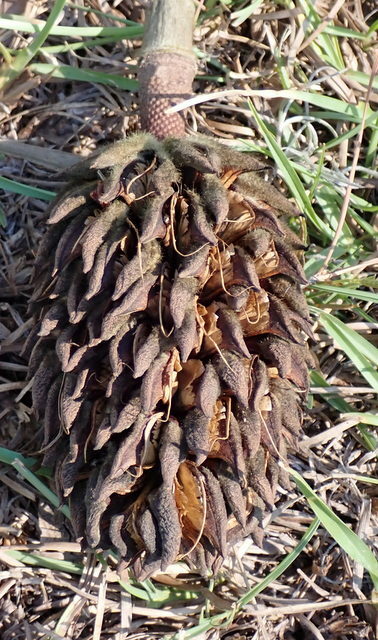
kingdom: Plantae
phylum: Tracheophyta
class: Magnoliopsida
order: Magnoliales
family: Magnoliaceae
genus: Magnolia
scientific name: Magnolia grandiflora
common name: Southern magnolia
